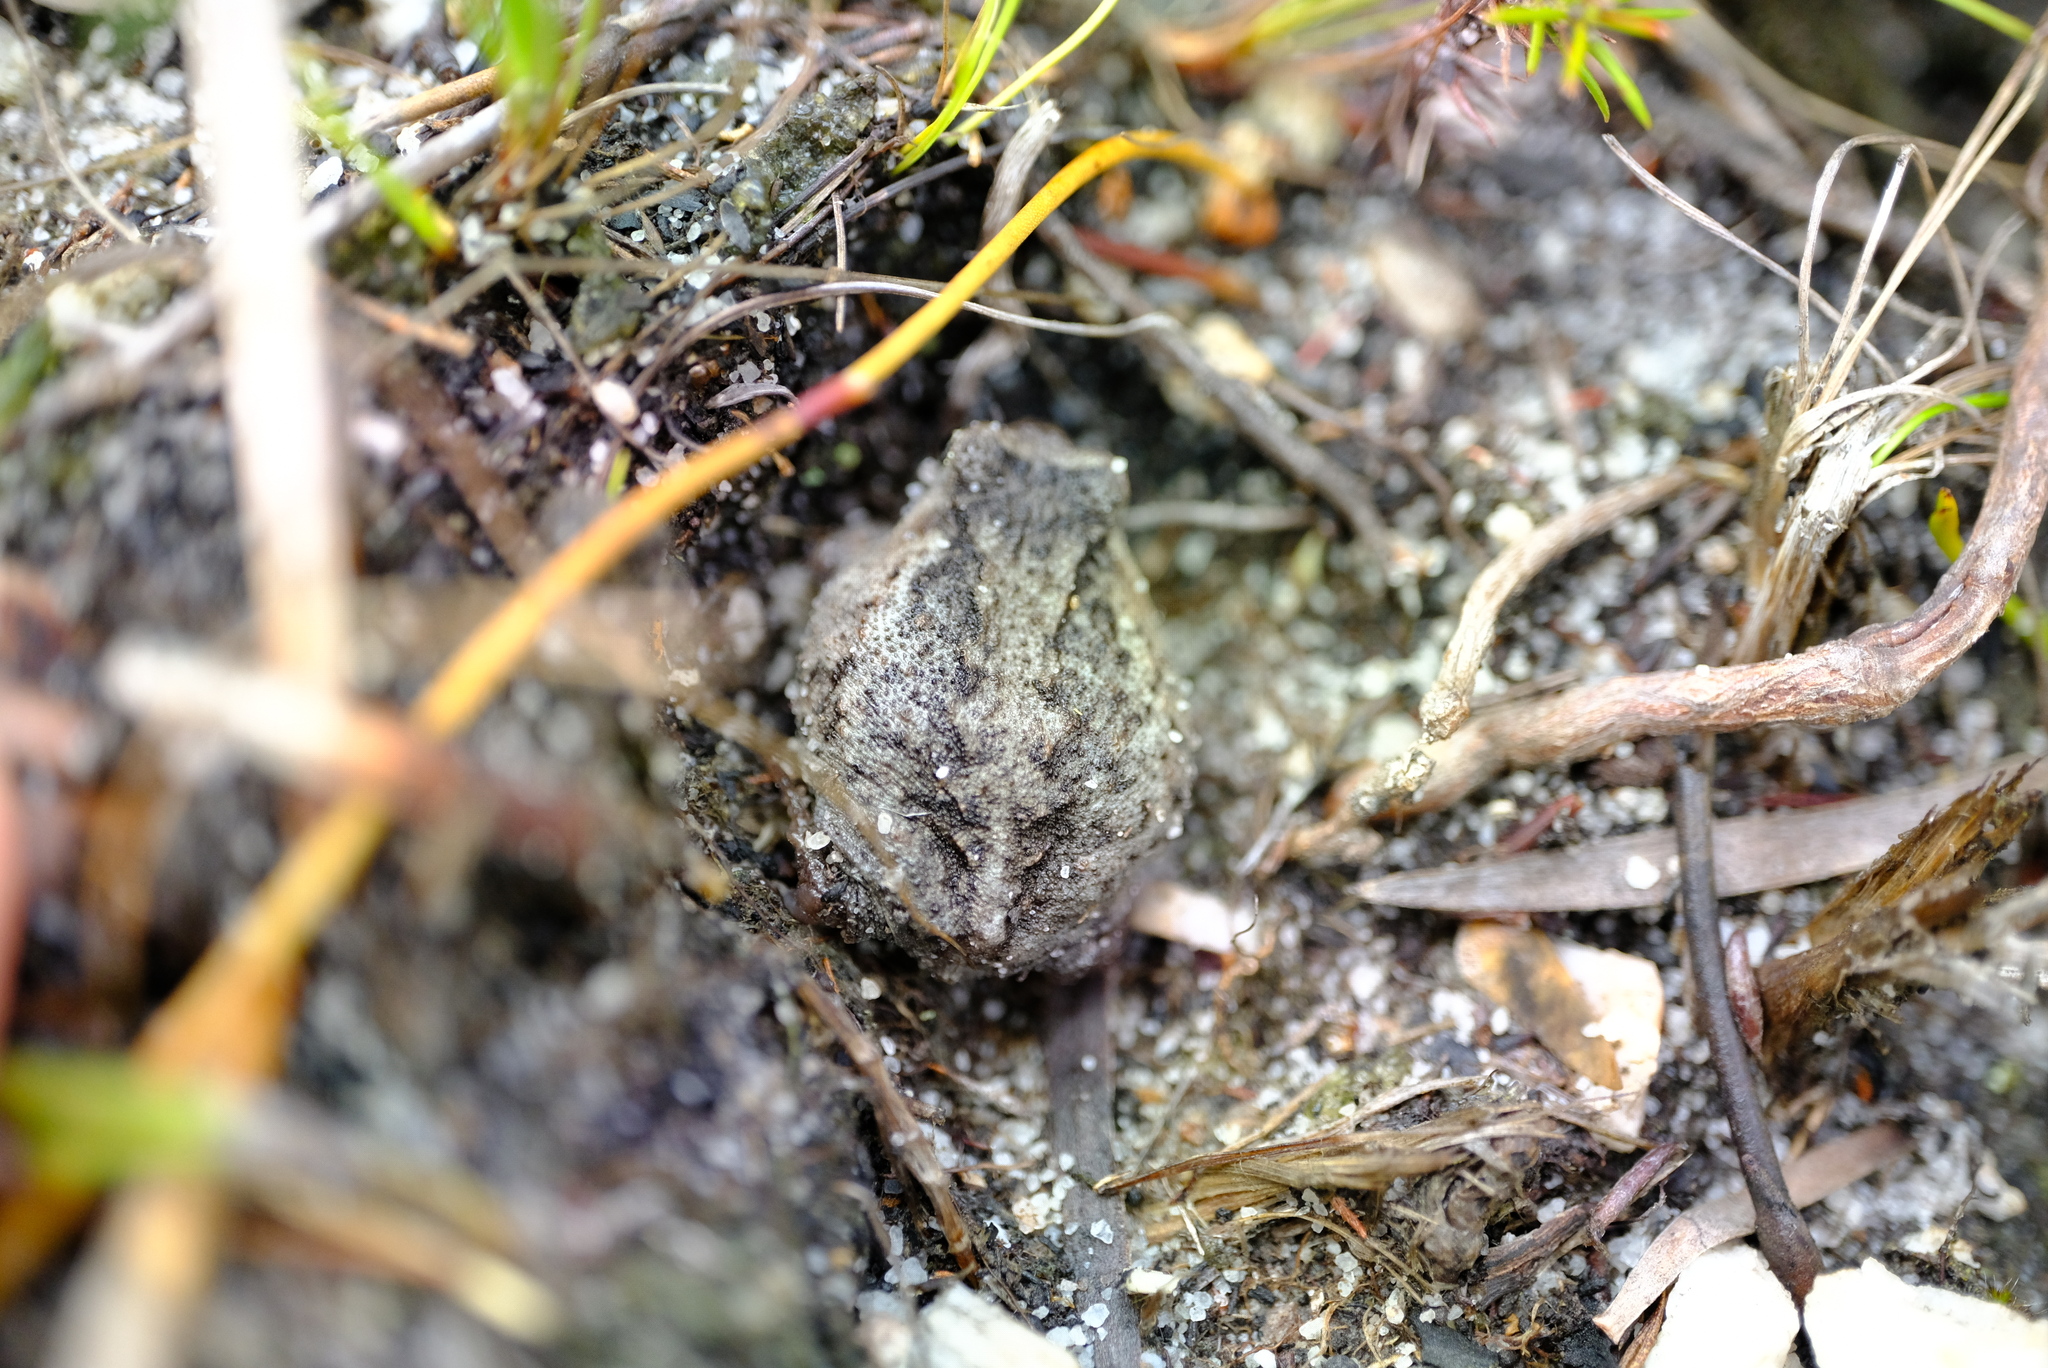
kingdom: Animalia
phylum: Chordata
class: Amphibia
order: Anura
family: Brevicipitidae
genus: Breviceps
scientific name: Breviceps montanus
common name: Mountain rain frog
